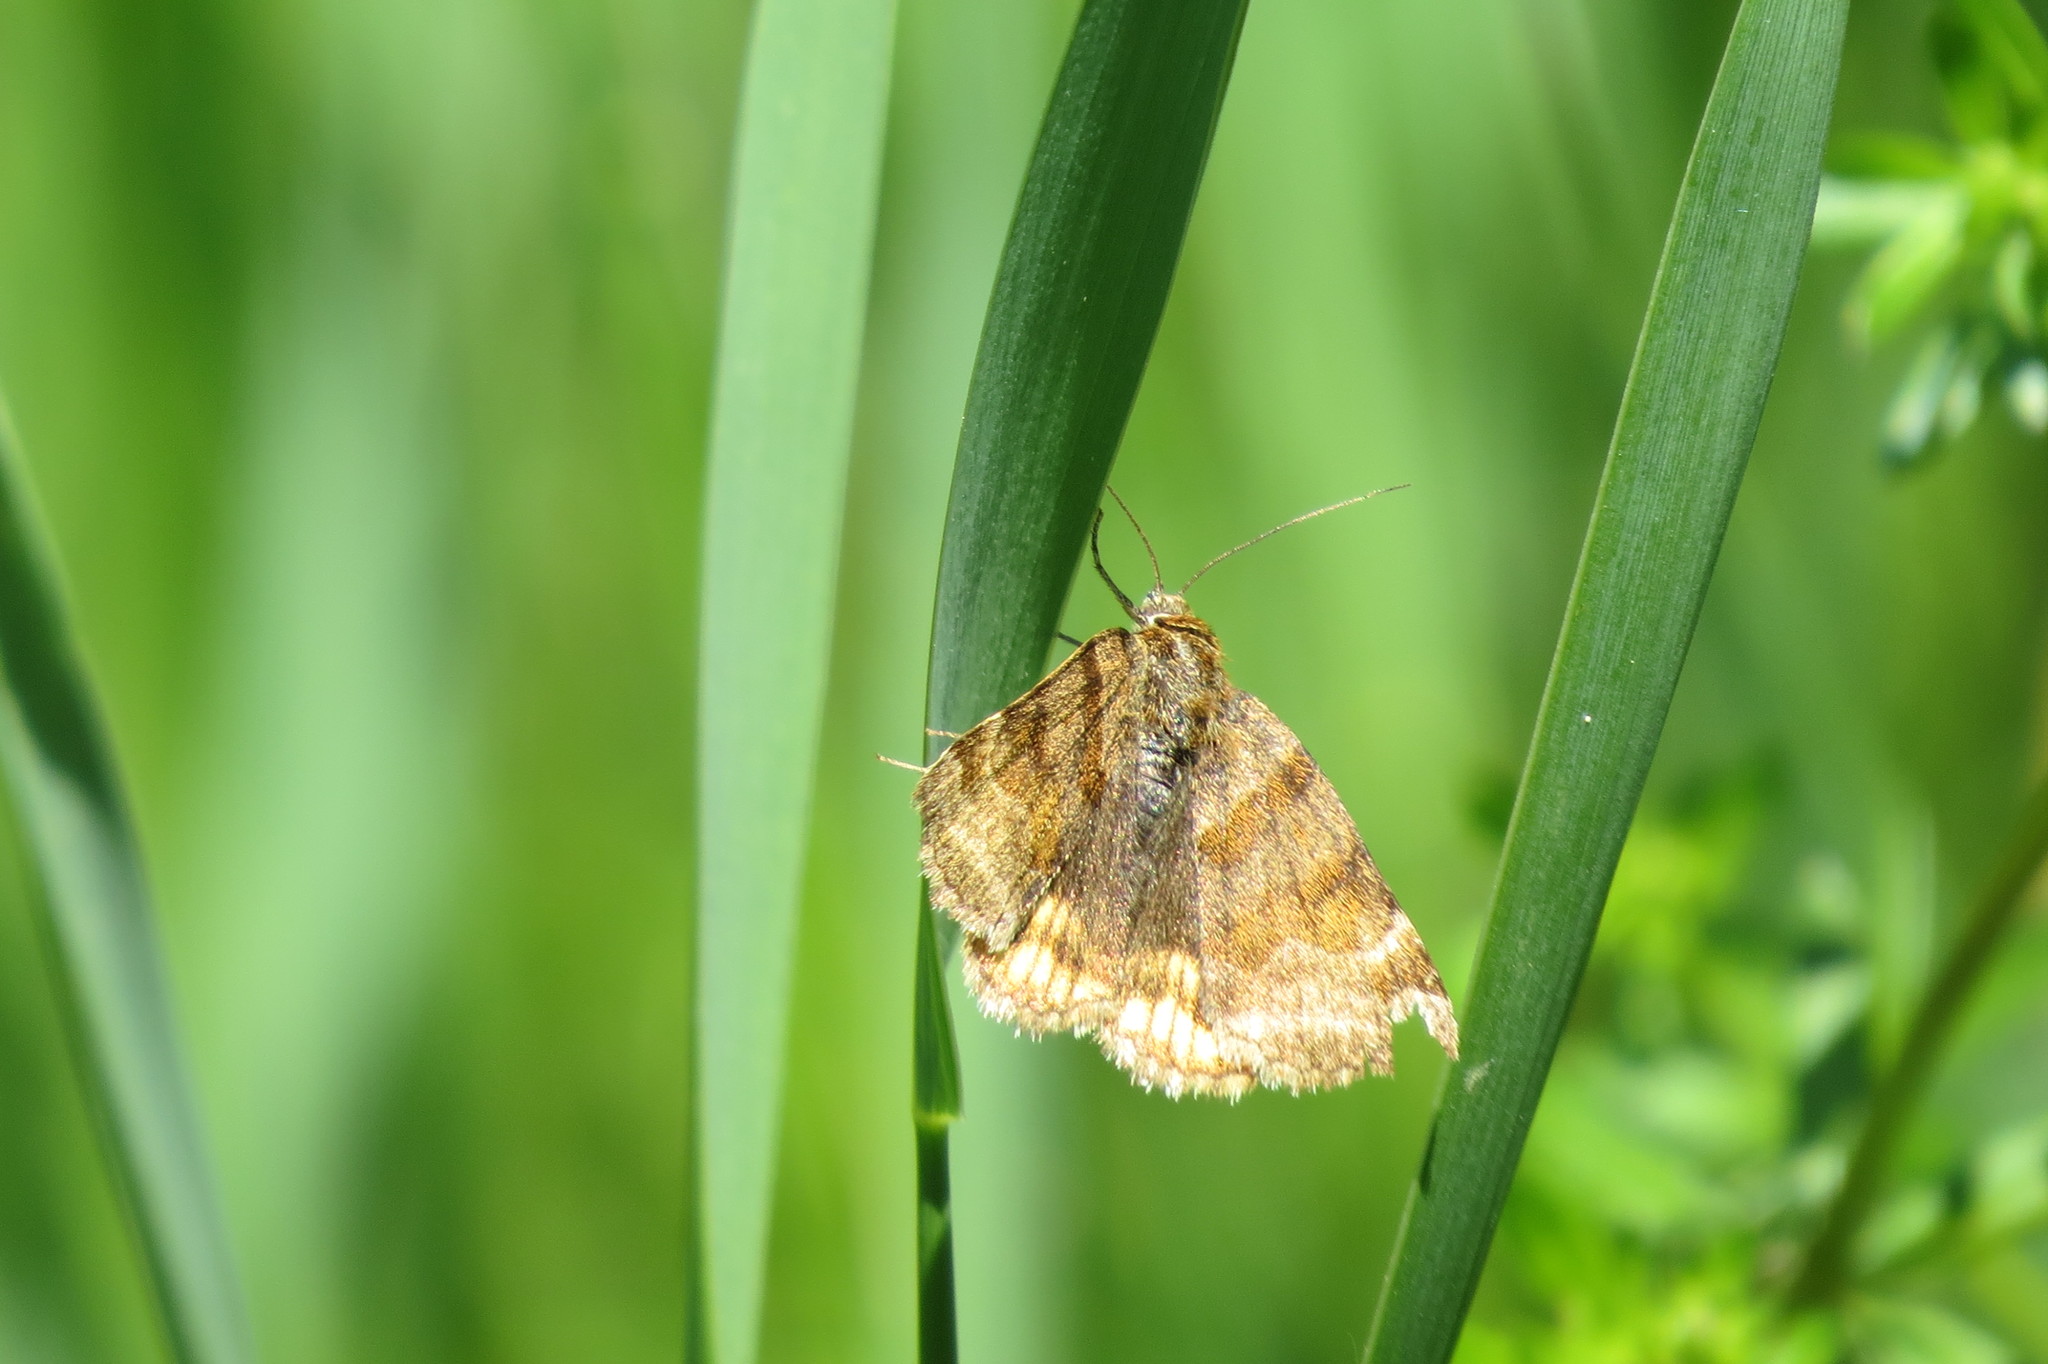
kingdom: Animalia
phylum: Arthropoda
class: Insecta
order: Lepidoptera
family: Erebidae
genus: Euclidia
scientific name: Euclidia glyphica
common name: Burnet companion
